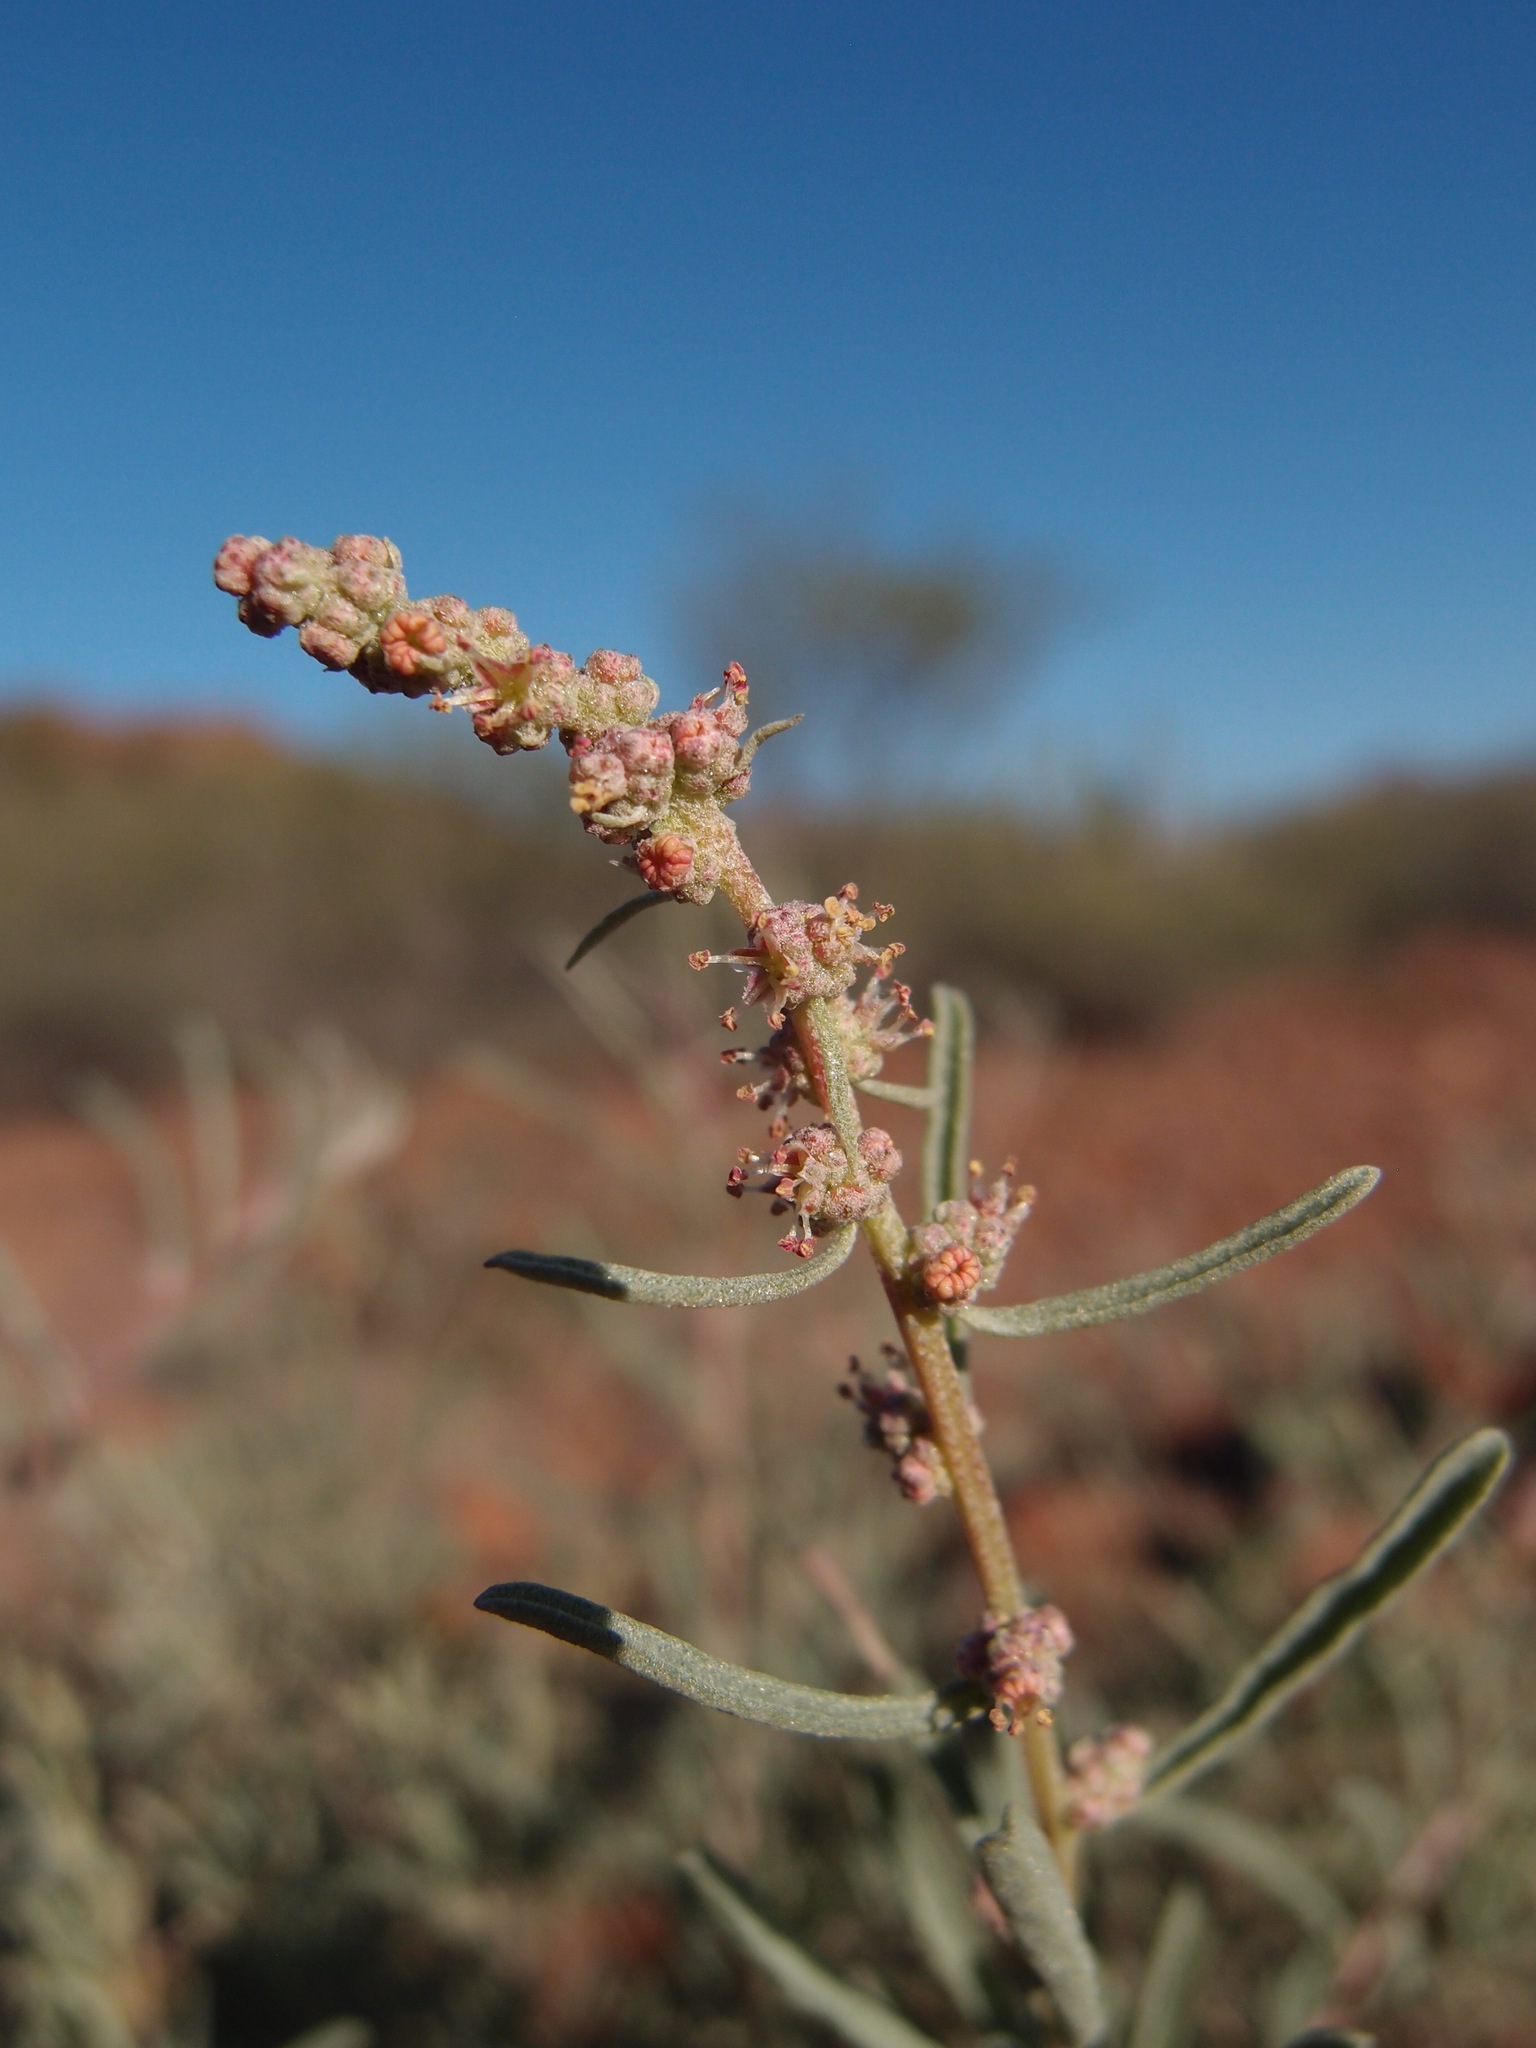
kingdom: Plantae
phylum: Tracheophyta
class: Magnoliopsida
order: Caryophyllales
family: Amaranthaceae
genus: Atriplex
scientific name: Atriplex linearis
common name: Slender-leaf saltbush
